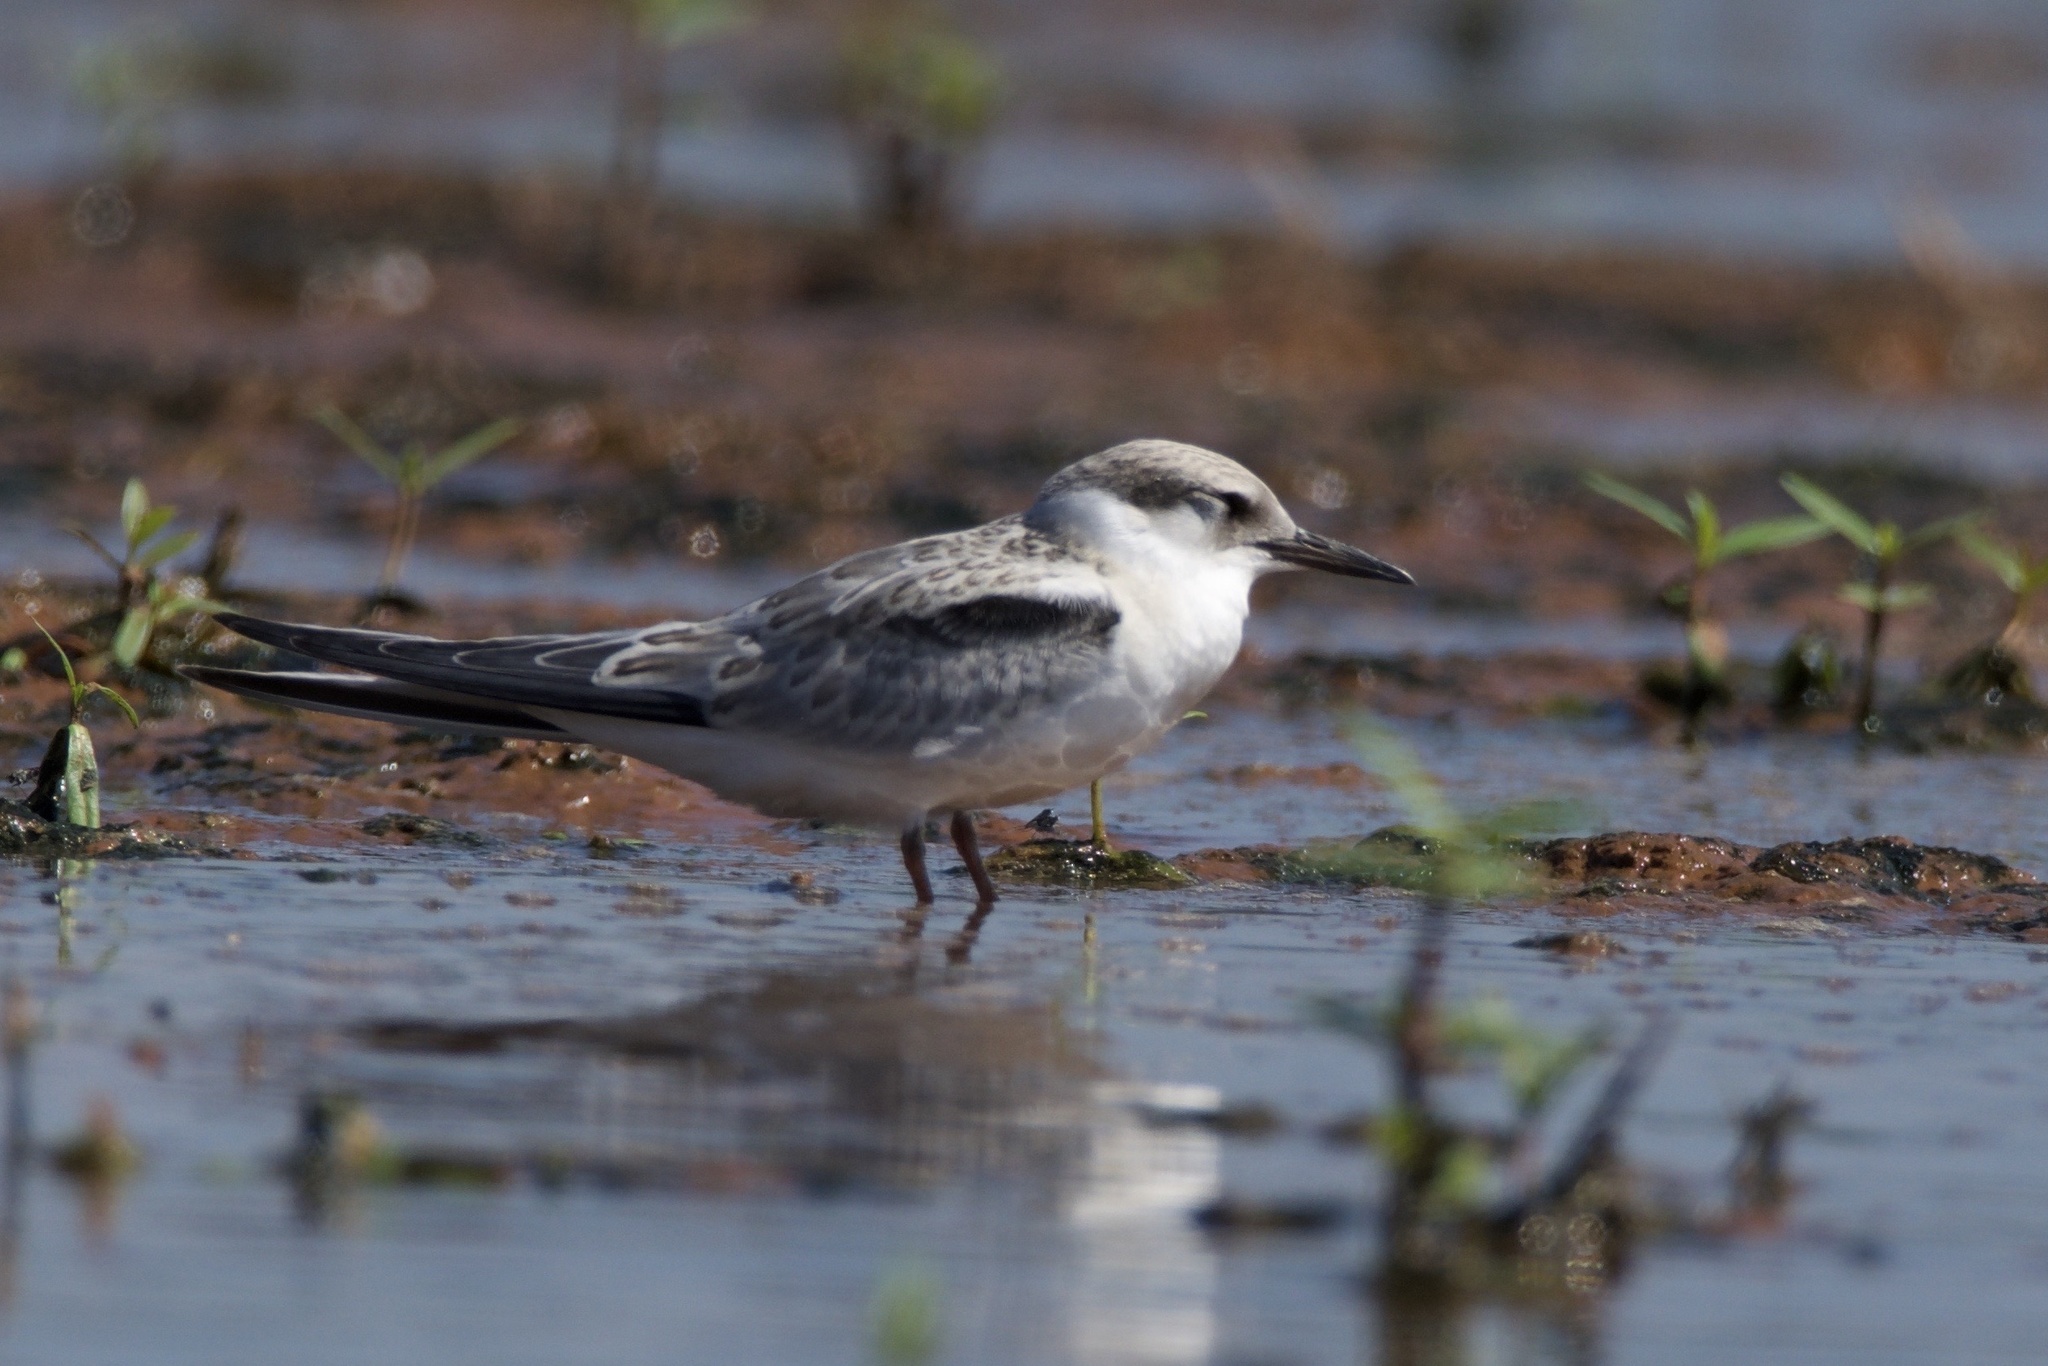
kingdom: Animalia
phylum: Chordata
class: Aves
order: Charadriiformes
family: Laridae
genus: Sternula
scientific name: Sternula antillarum
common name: Least tern
